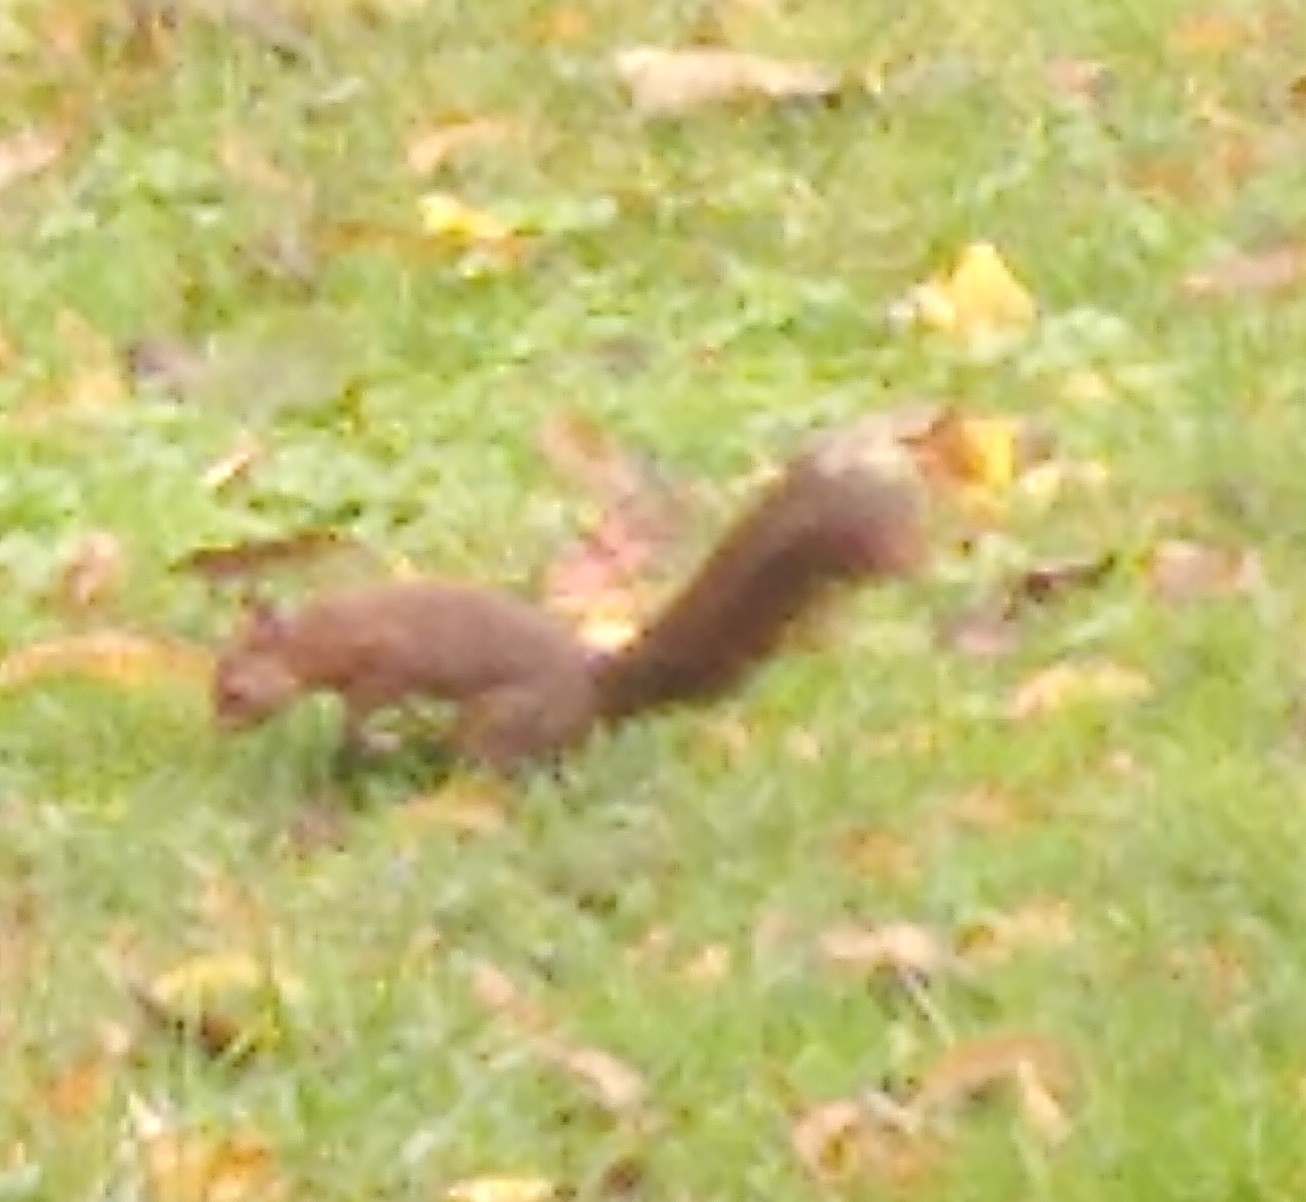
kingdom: Animalia
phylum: Chordata
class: Mammalia
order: Rodentia
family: Sciuridae
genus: Sciurus
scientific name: Sciurus vulgaris
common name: Eurasian red squirrel
